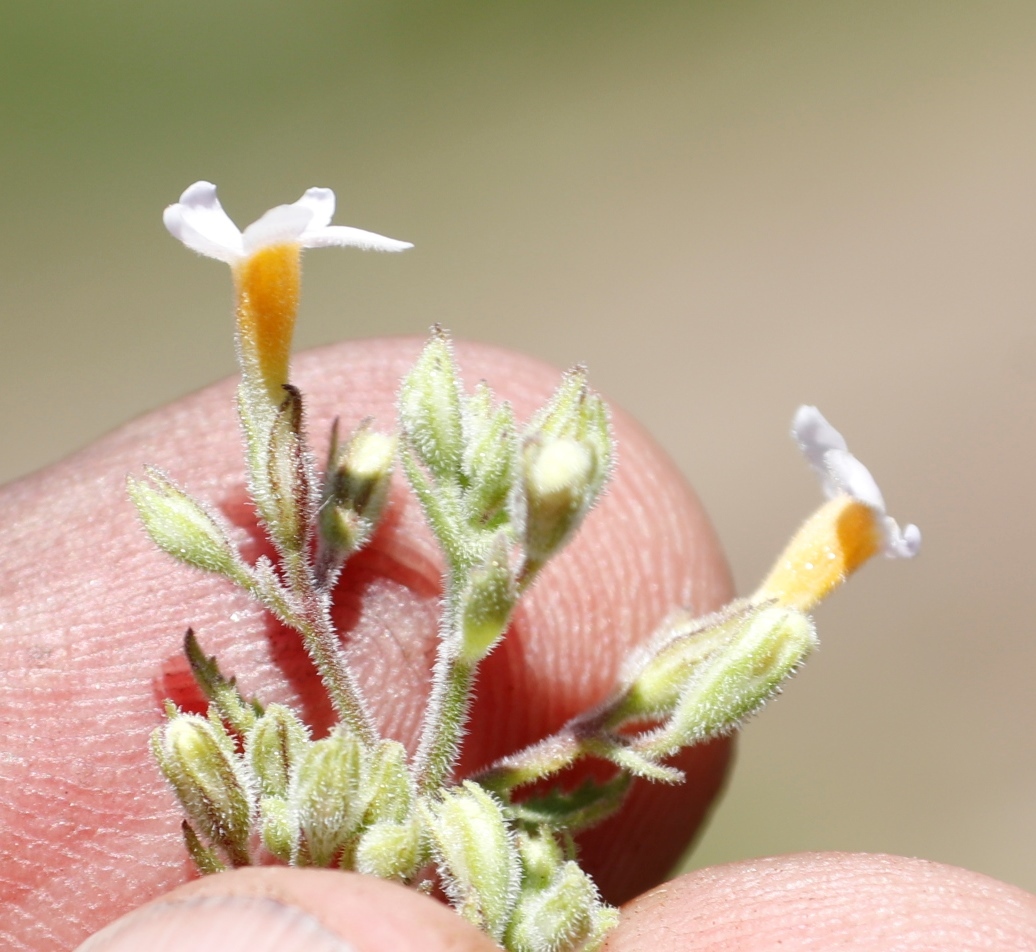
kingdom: Plantae
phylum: Tracheophyta
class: Magnoliopsida
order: Lamiales
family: Scrophulariaceae
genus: Chaenostoma
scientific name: Chaenostoma floribundum
